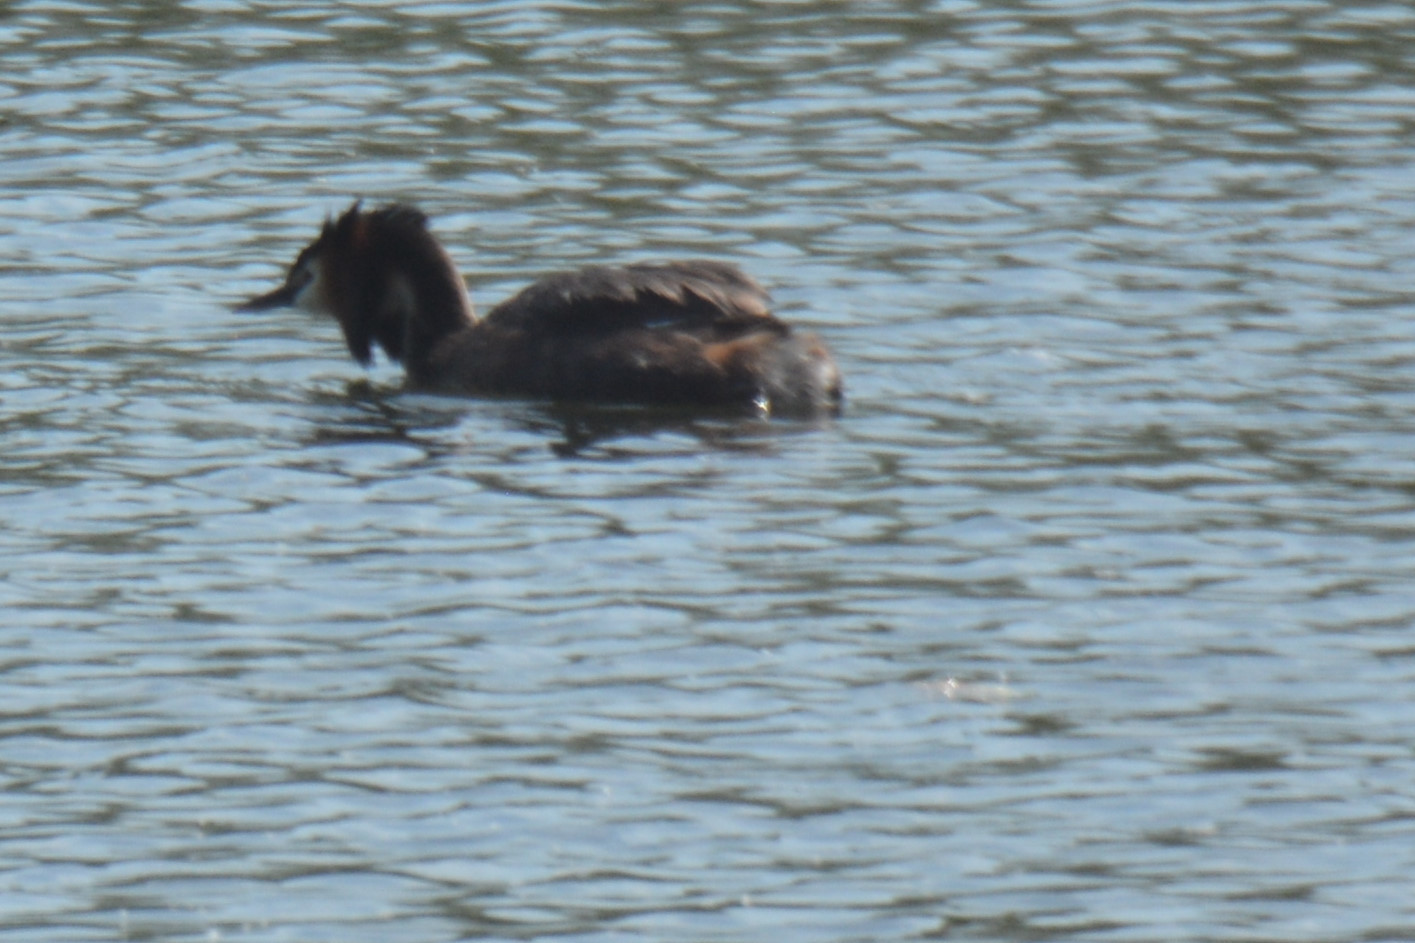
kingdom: Animalia
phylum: Chordata
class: Aves
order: Podicipediformes
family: Podicipedidae
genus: Podiceps
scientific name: Podiceps cristatus
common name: Great crested grebe
